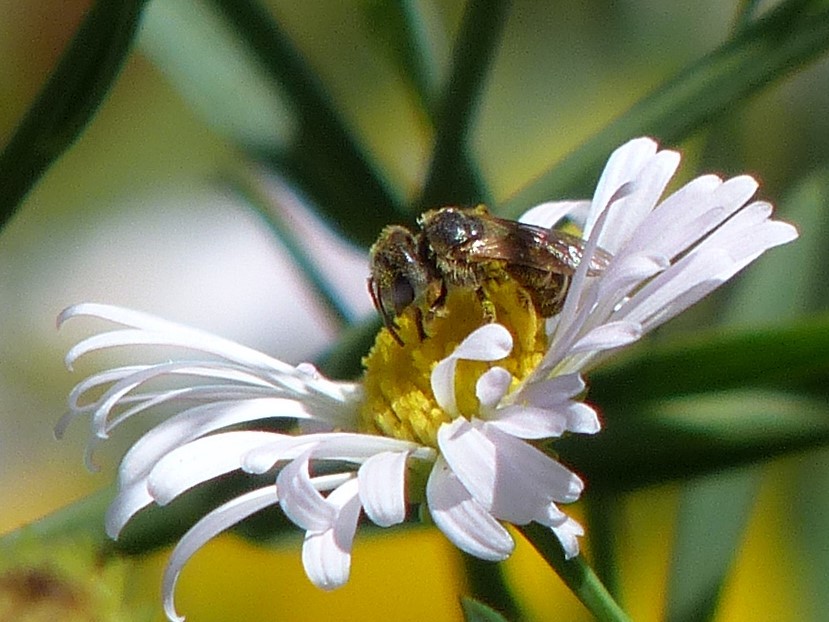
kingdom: Animalia
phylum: Arthropoda
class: Insecta
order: Hymenoptera
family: Halictidae
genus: Halictus
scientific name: Halictus ligatus
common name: Ligated furrow bee
